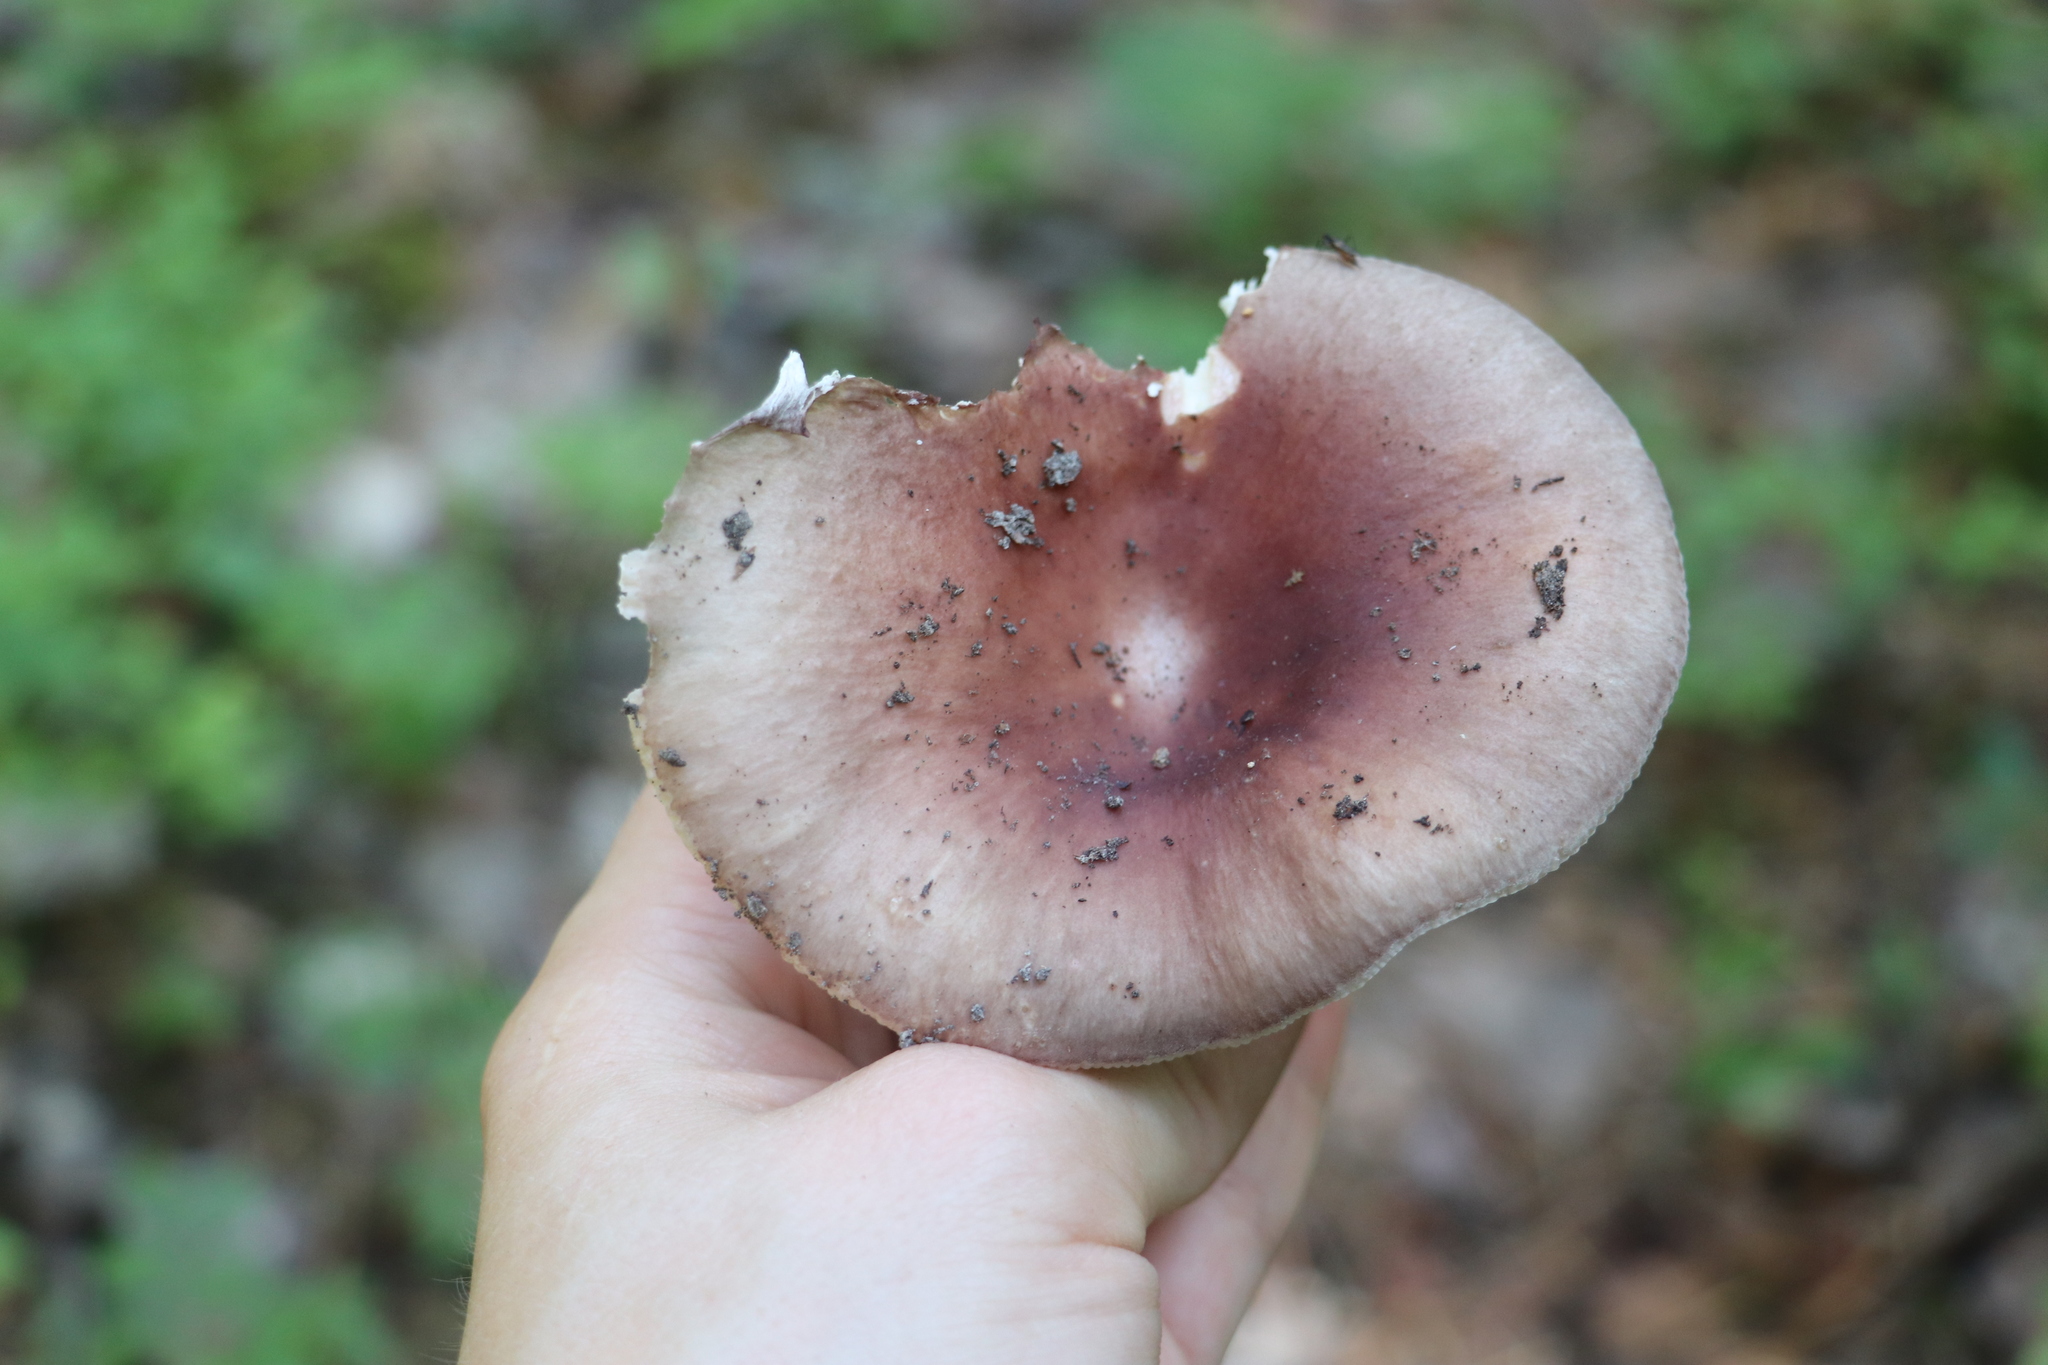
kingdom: Fungi
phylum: Basidiomycota
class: Agaricomycetes
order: Russulales
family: Russulaceae
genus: Russula
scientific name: Russula vesca
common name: Bare-toothed russula
